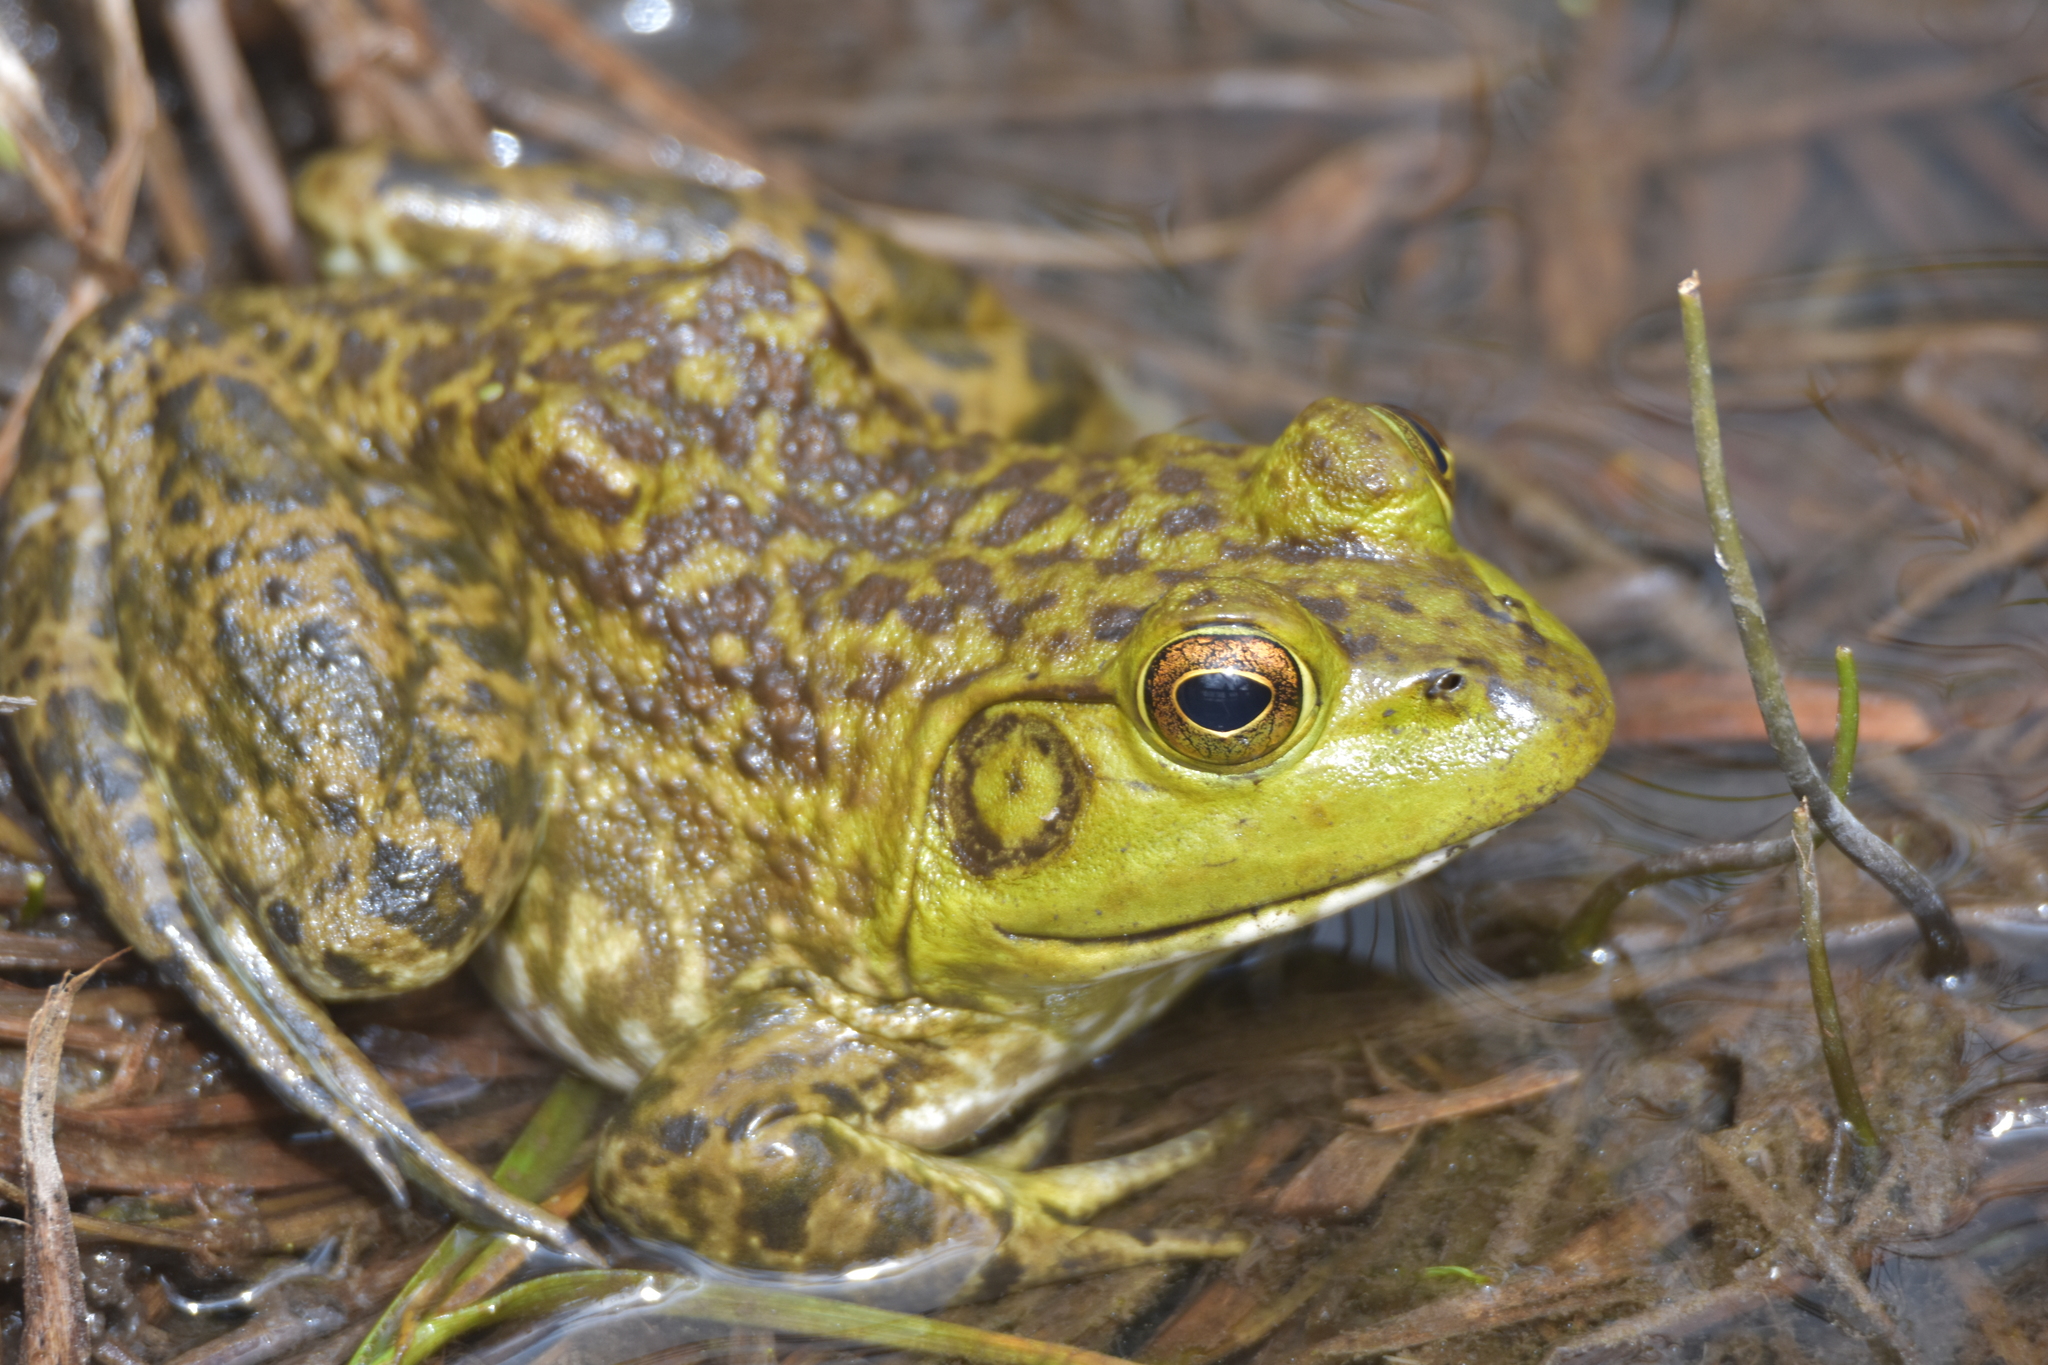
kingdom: Animalia
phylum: Chordata
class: Amphibia
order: Anura
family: Ranidae
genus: Lithobates
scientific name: Lithobates catesbeianus
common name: American bullfrog
